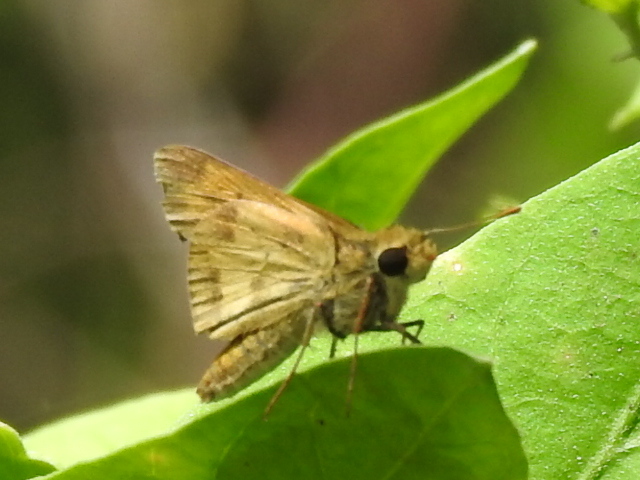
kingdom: Animalia
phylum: Arthropoda
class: Insecta
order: Lepidoptera
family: Hesperiidae
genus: Polites
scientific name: Polites vibex
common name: Whirlabout
